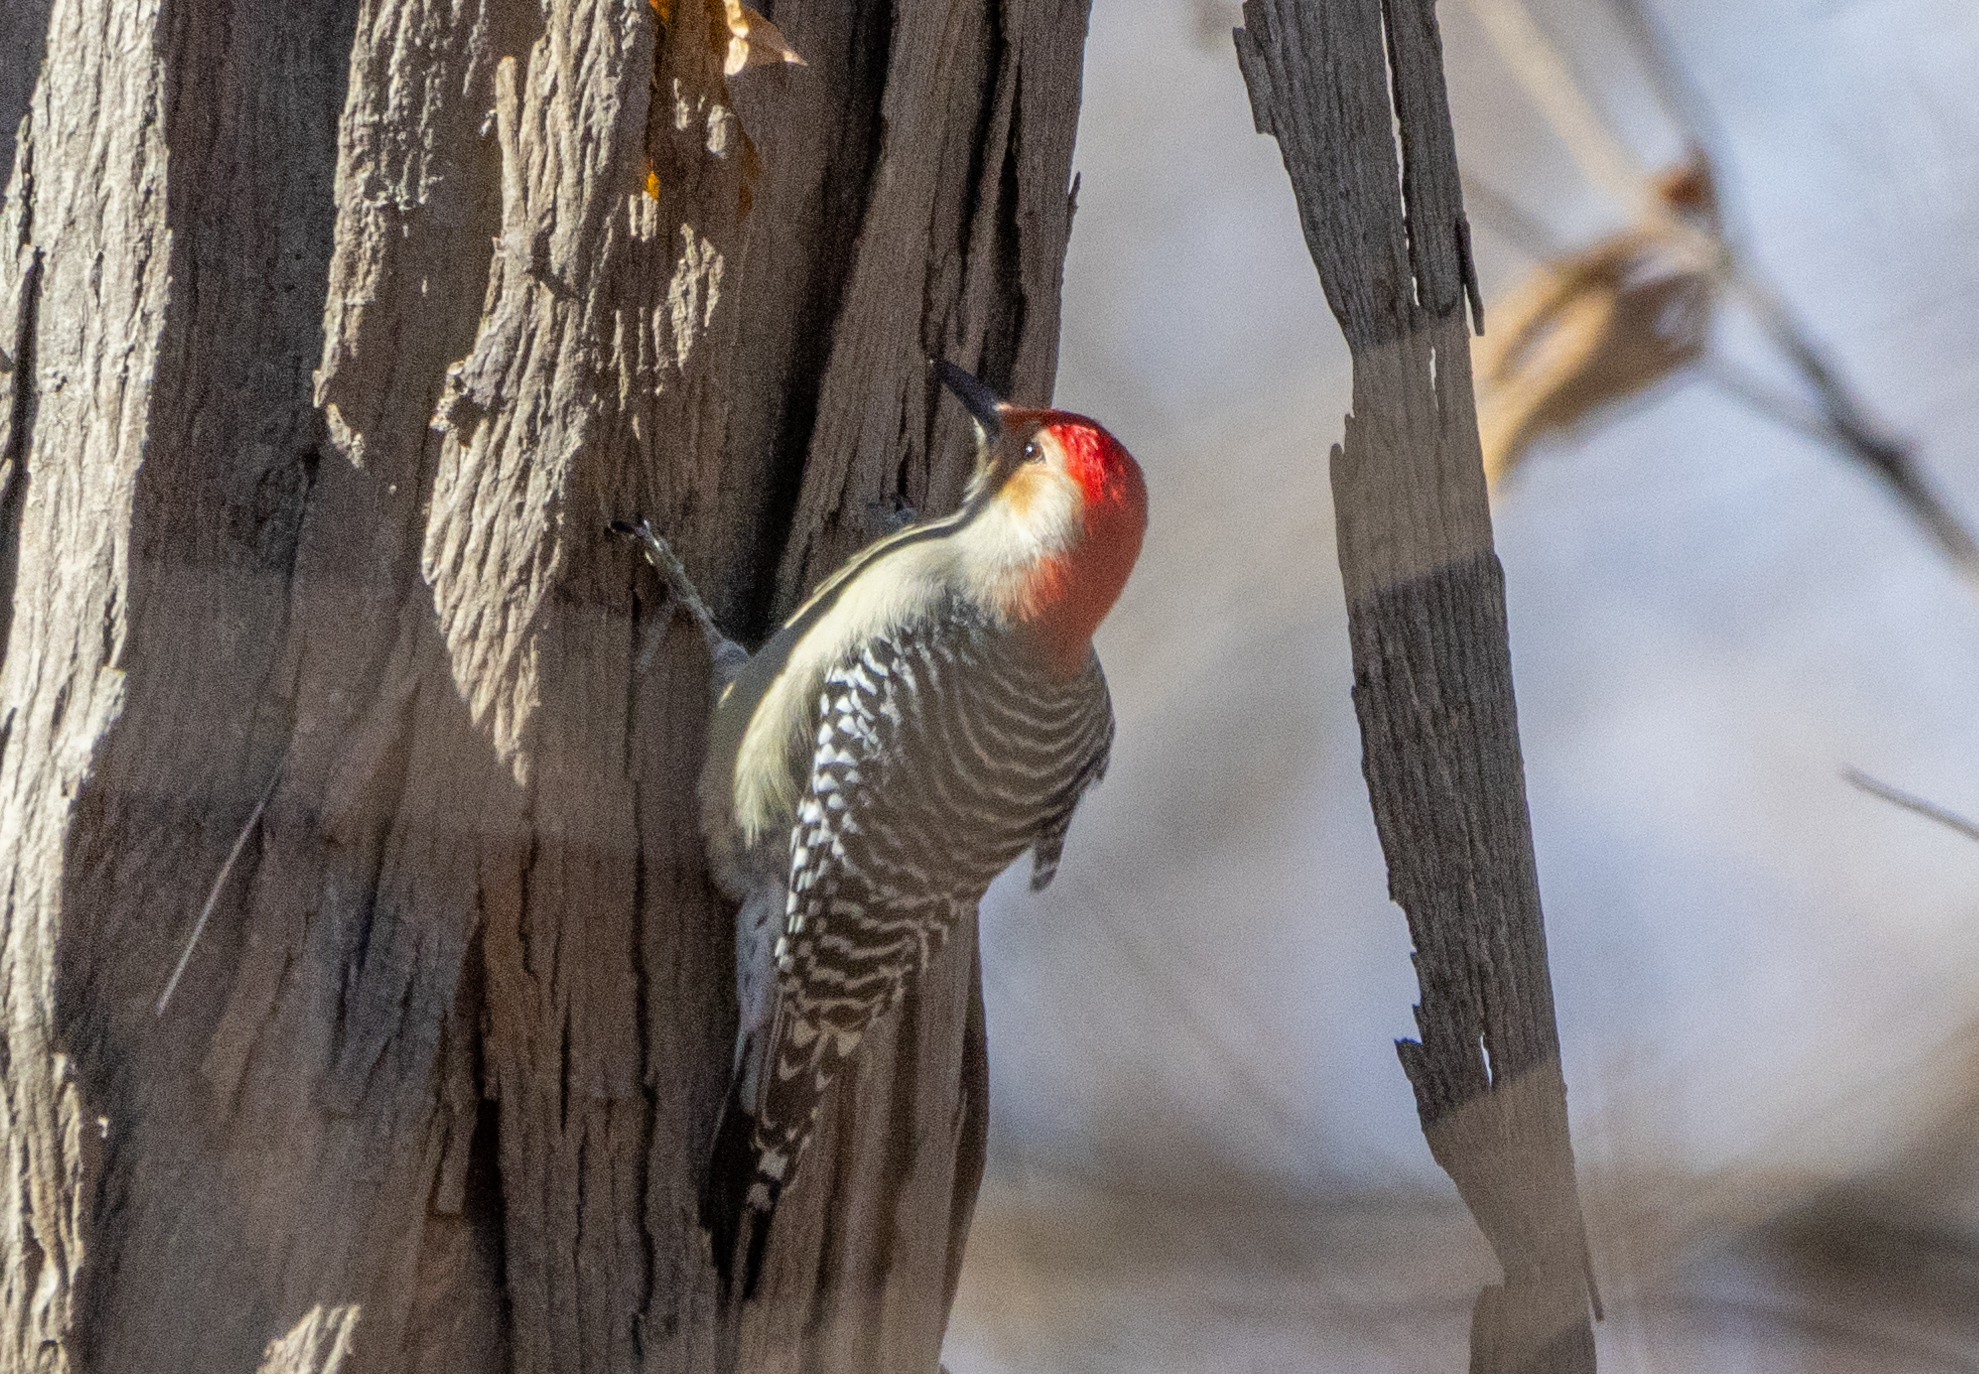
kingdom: Animalia
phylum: Chordata
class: Aves
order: Piciformes
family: Picidae
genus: Melanerpes
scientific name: Melanerpes carolinus
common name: Red-bellied woodpecker
